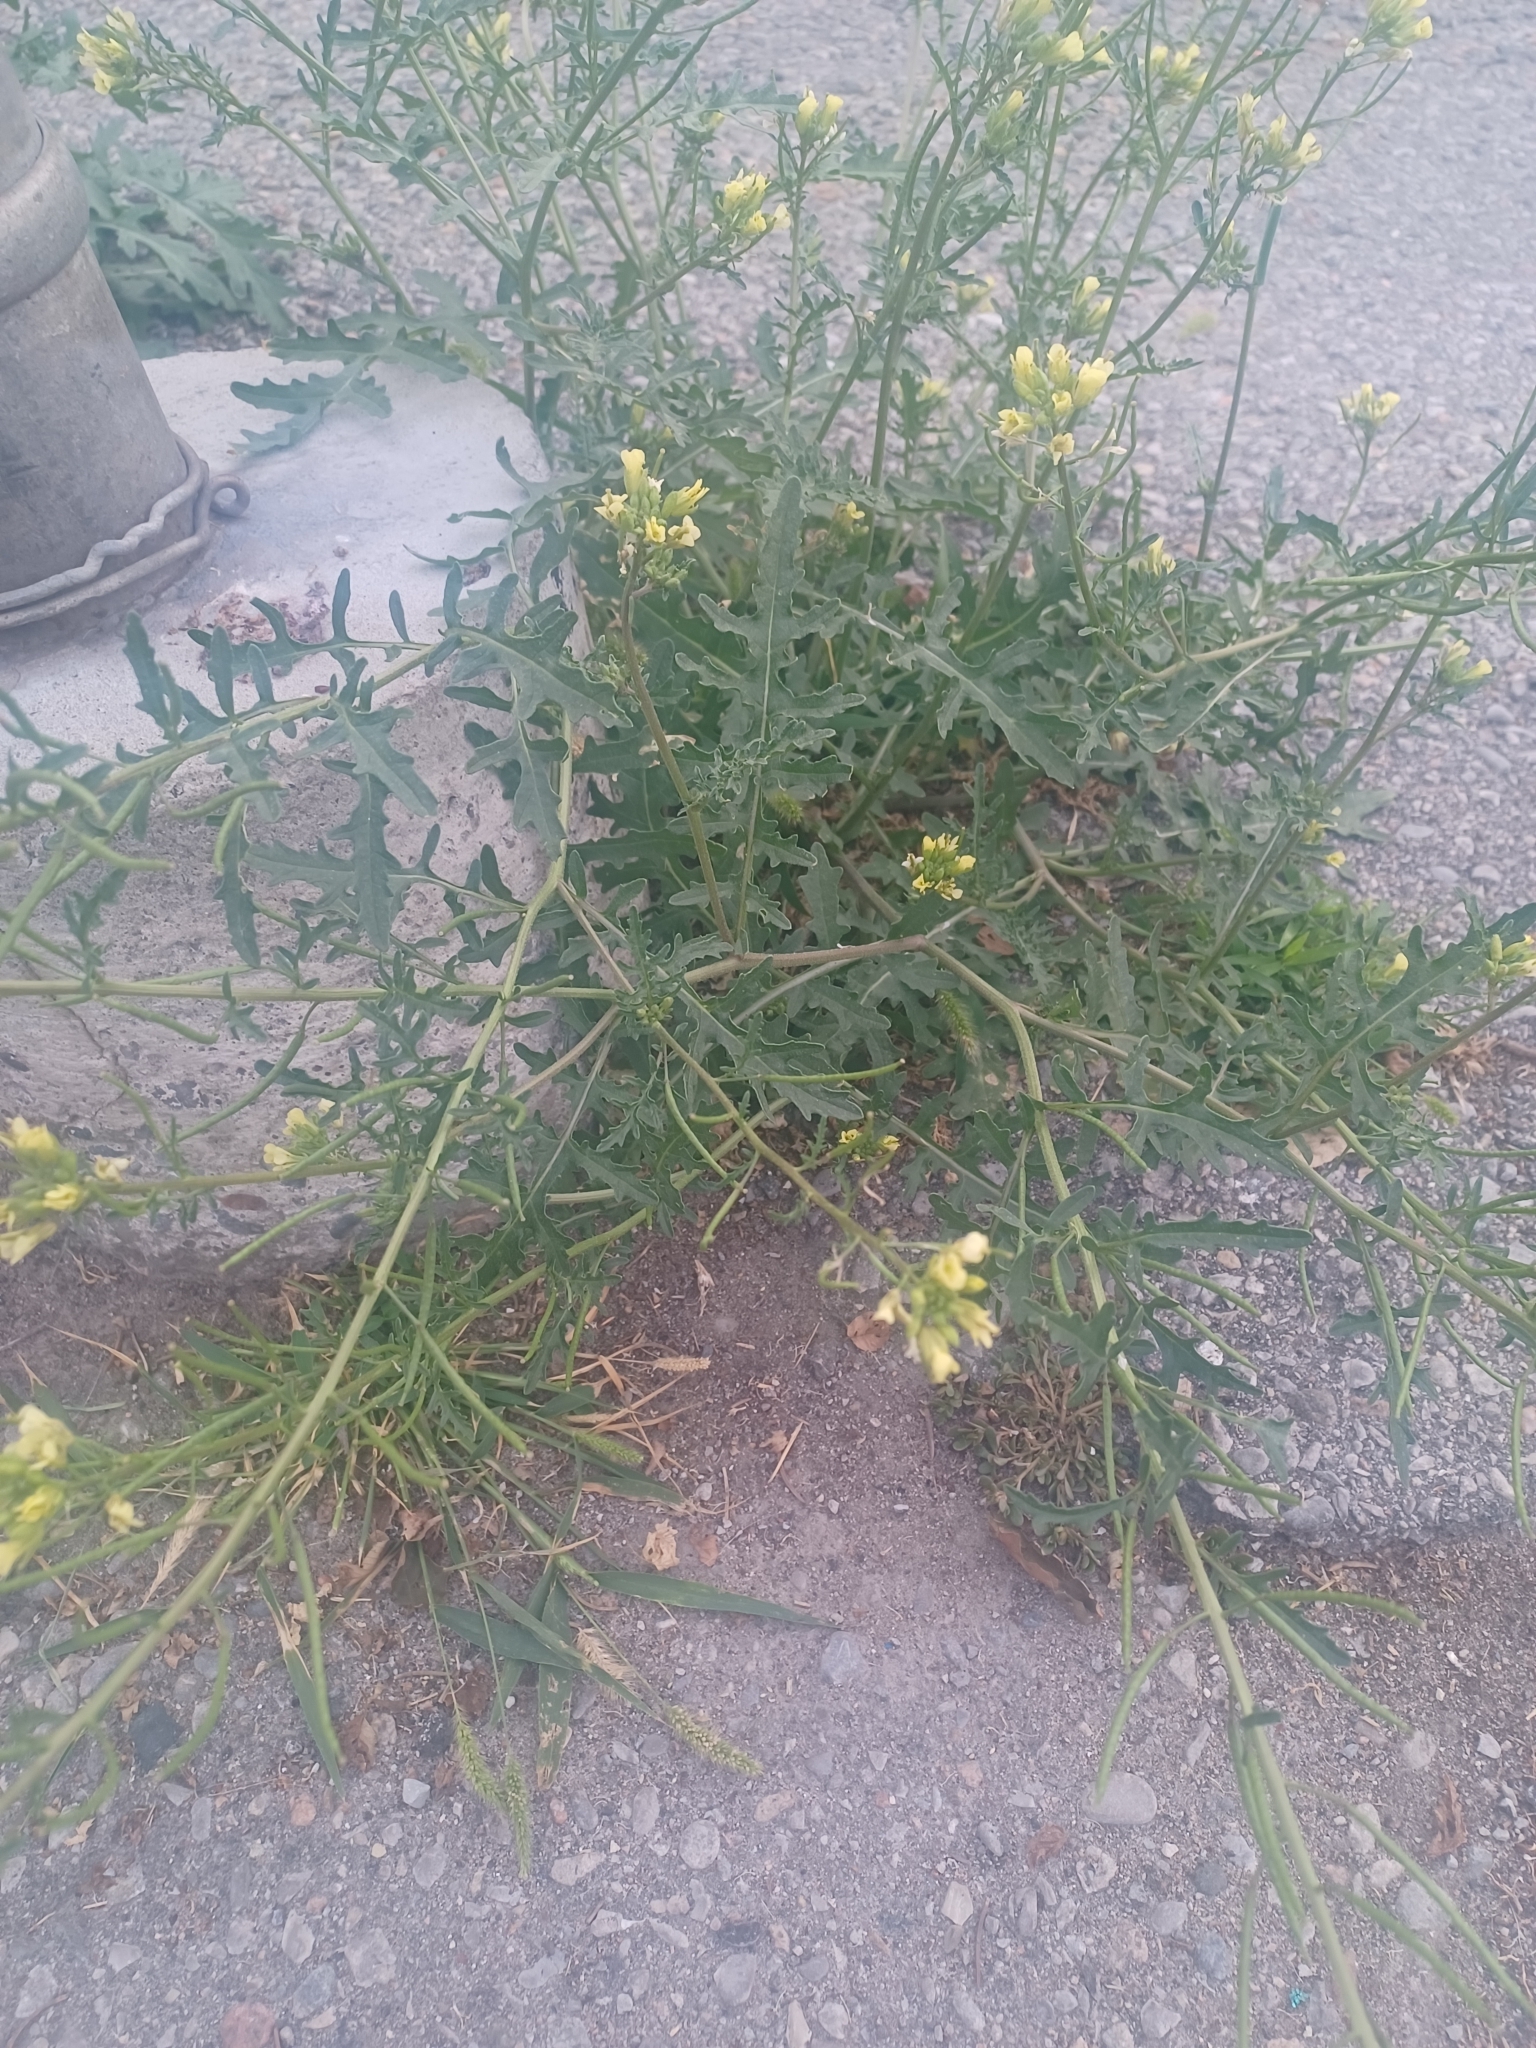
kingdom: Plantae
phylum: Tracheophyta
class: Magnoliopsida
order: Brassicales
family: Brassicaceae
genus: Erucastrum
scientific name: Erucastrum gallicum
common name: Hairy rocket
